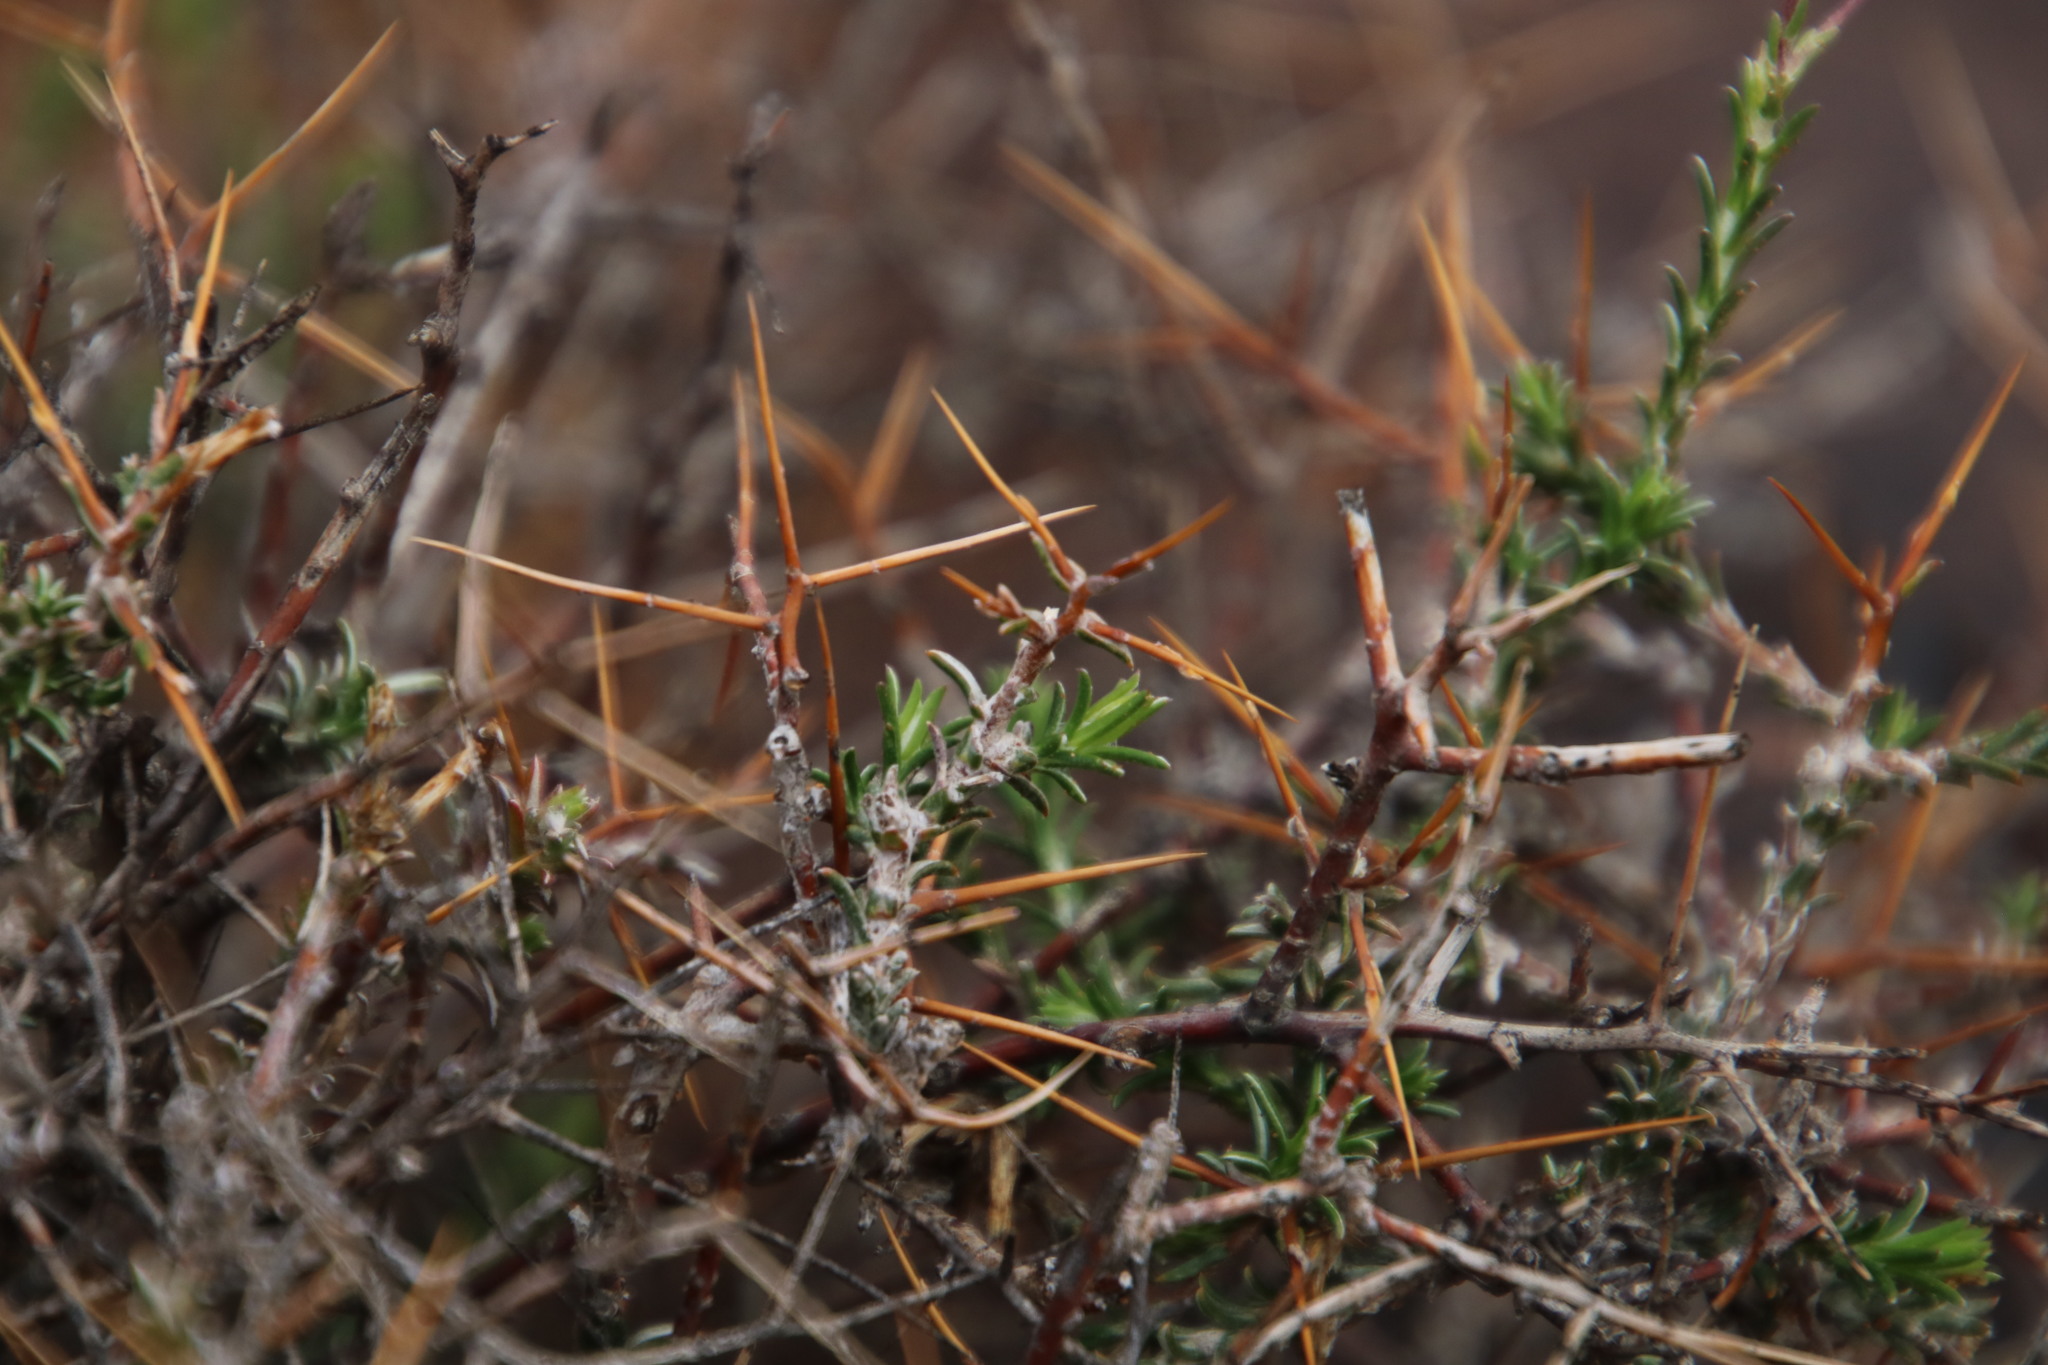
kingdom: Plantae
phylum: Tracheophyta
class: Magnoliopsida
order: Asterales
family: Asteraceae
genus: Pterothrix
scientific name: Pterothrix spinescens
